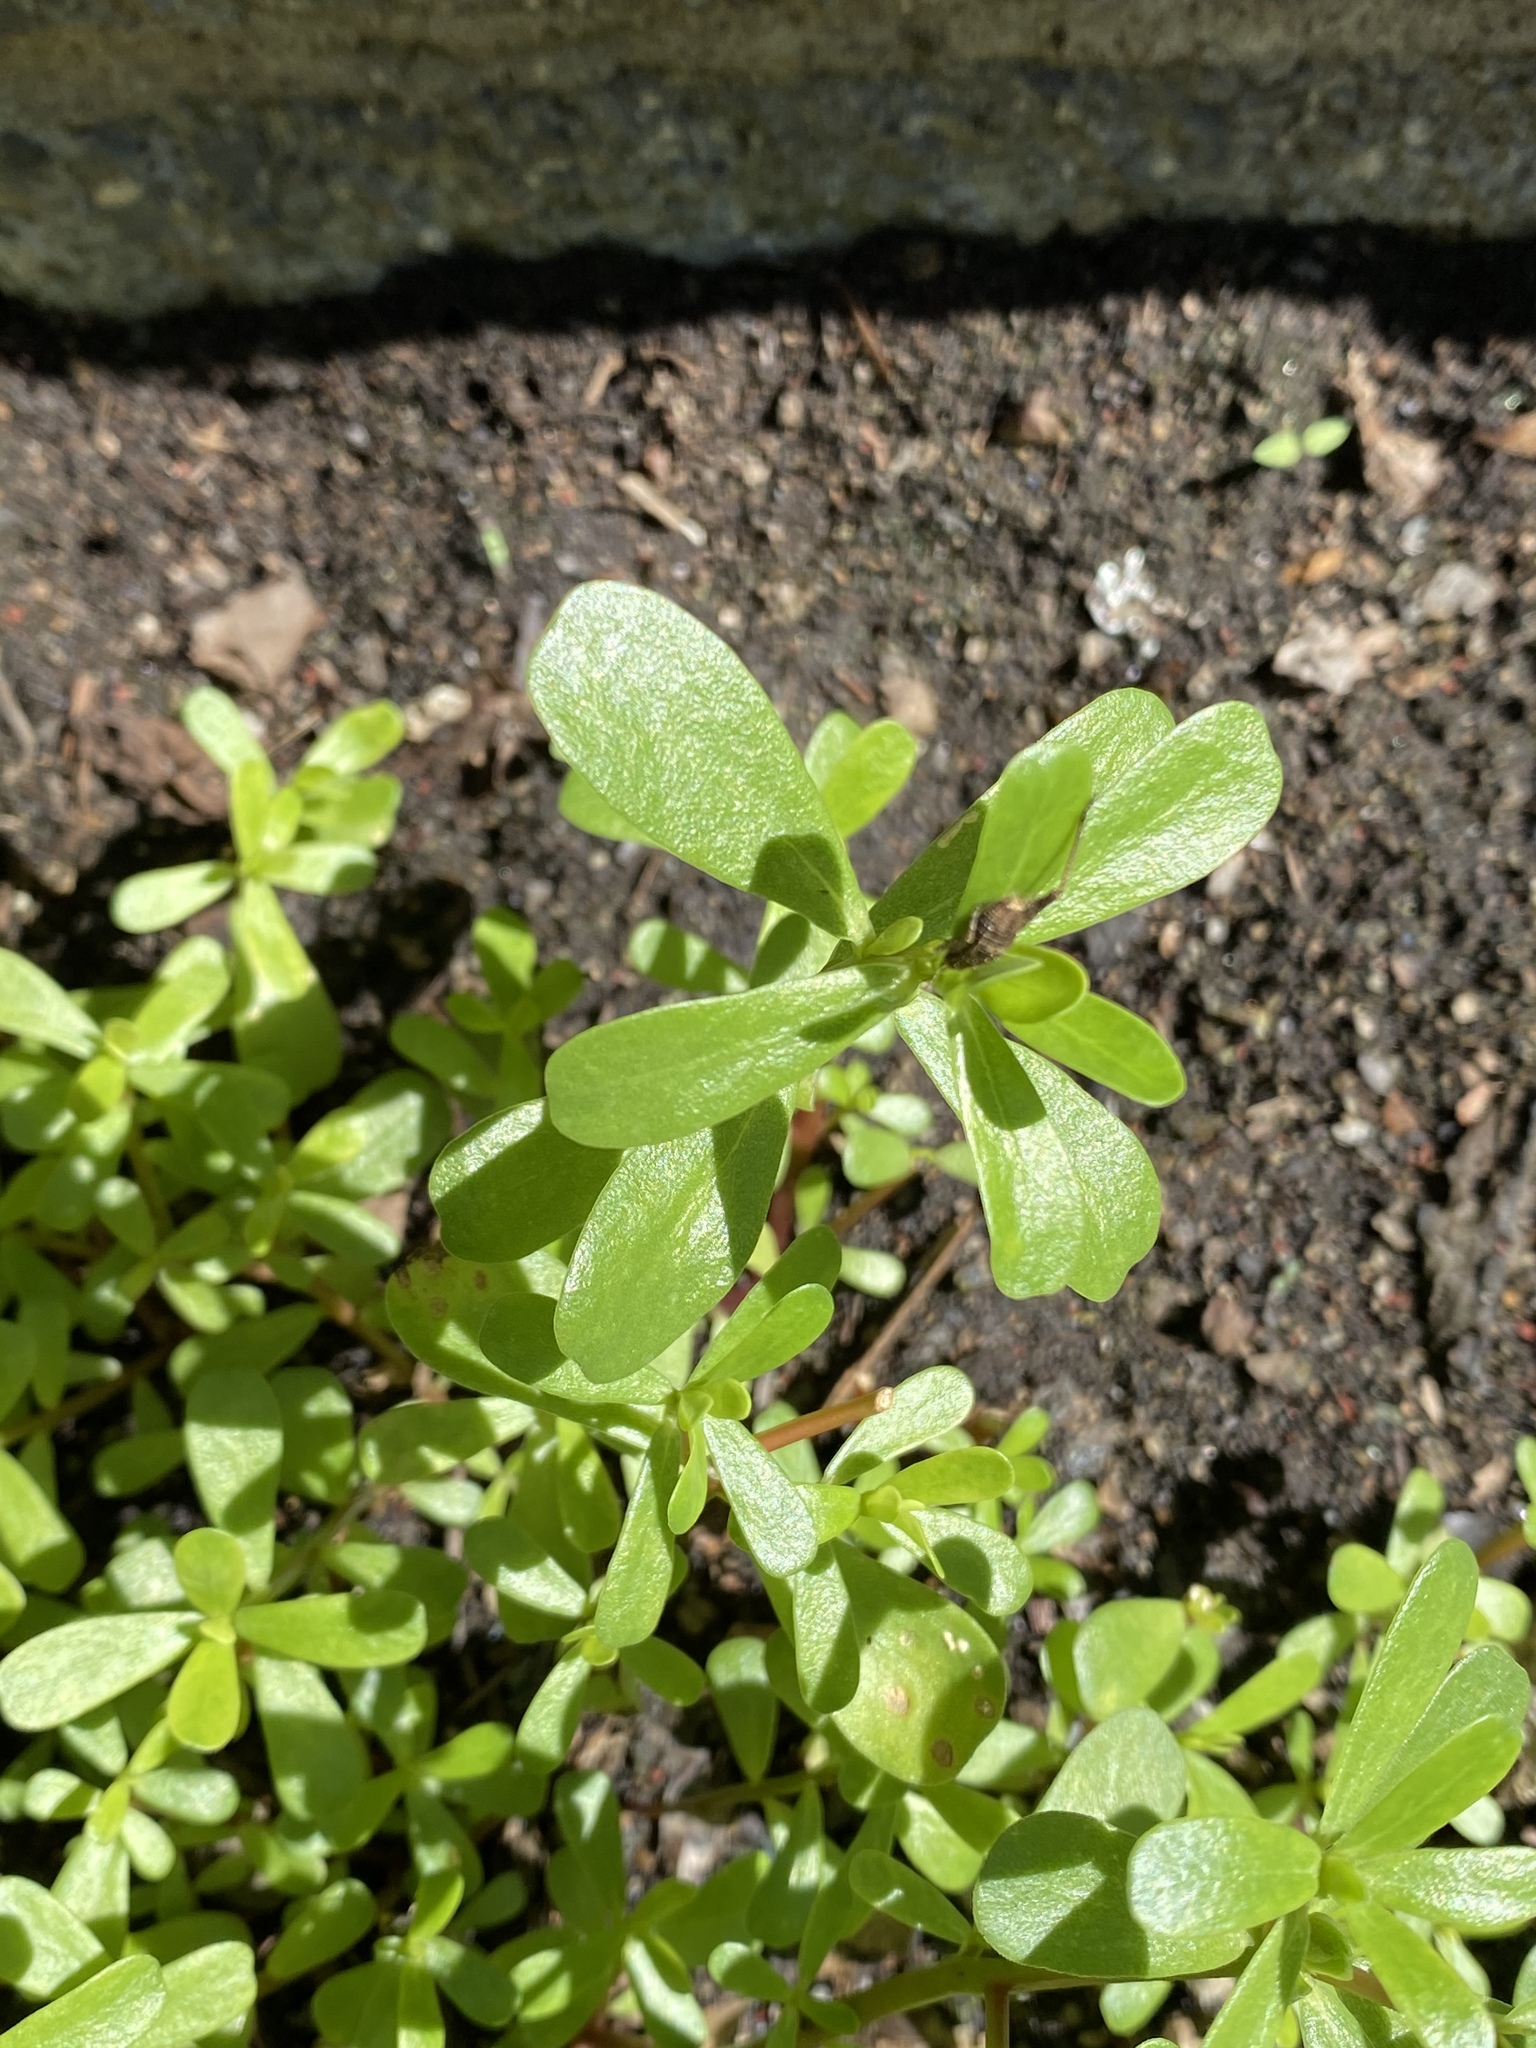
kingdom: Plantae
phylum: Tracheophyta
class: Magnoliopsida
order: Caryophyllales
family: Portulacaceae
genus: Portulaca
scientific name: Portulaca oleracea
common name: Common purslane
